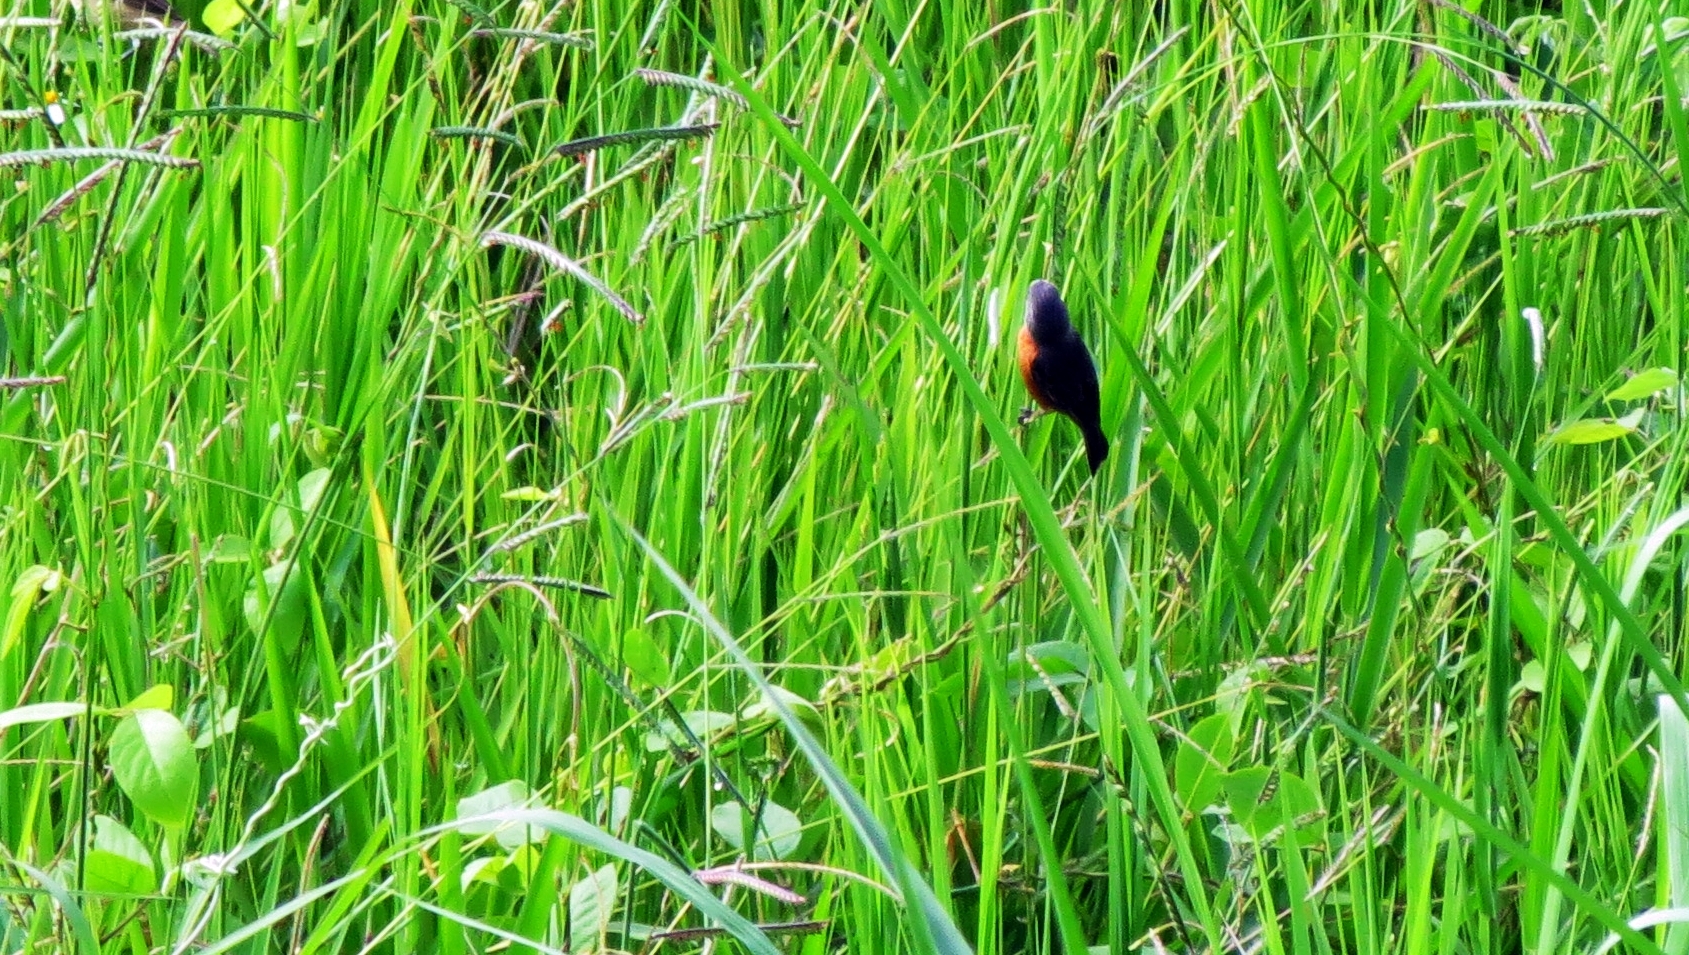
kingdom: Animalia
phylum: Chordata
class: Aves
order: Passeriformes
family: Thraupidae
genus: Sporophila
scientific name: Sporophila minuta
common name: Ruddy-breasted seedeater
